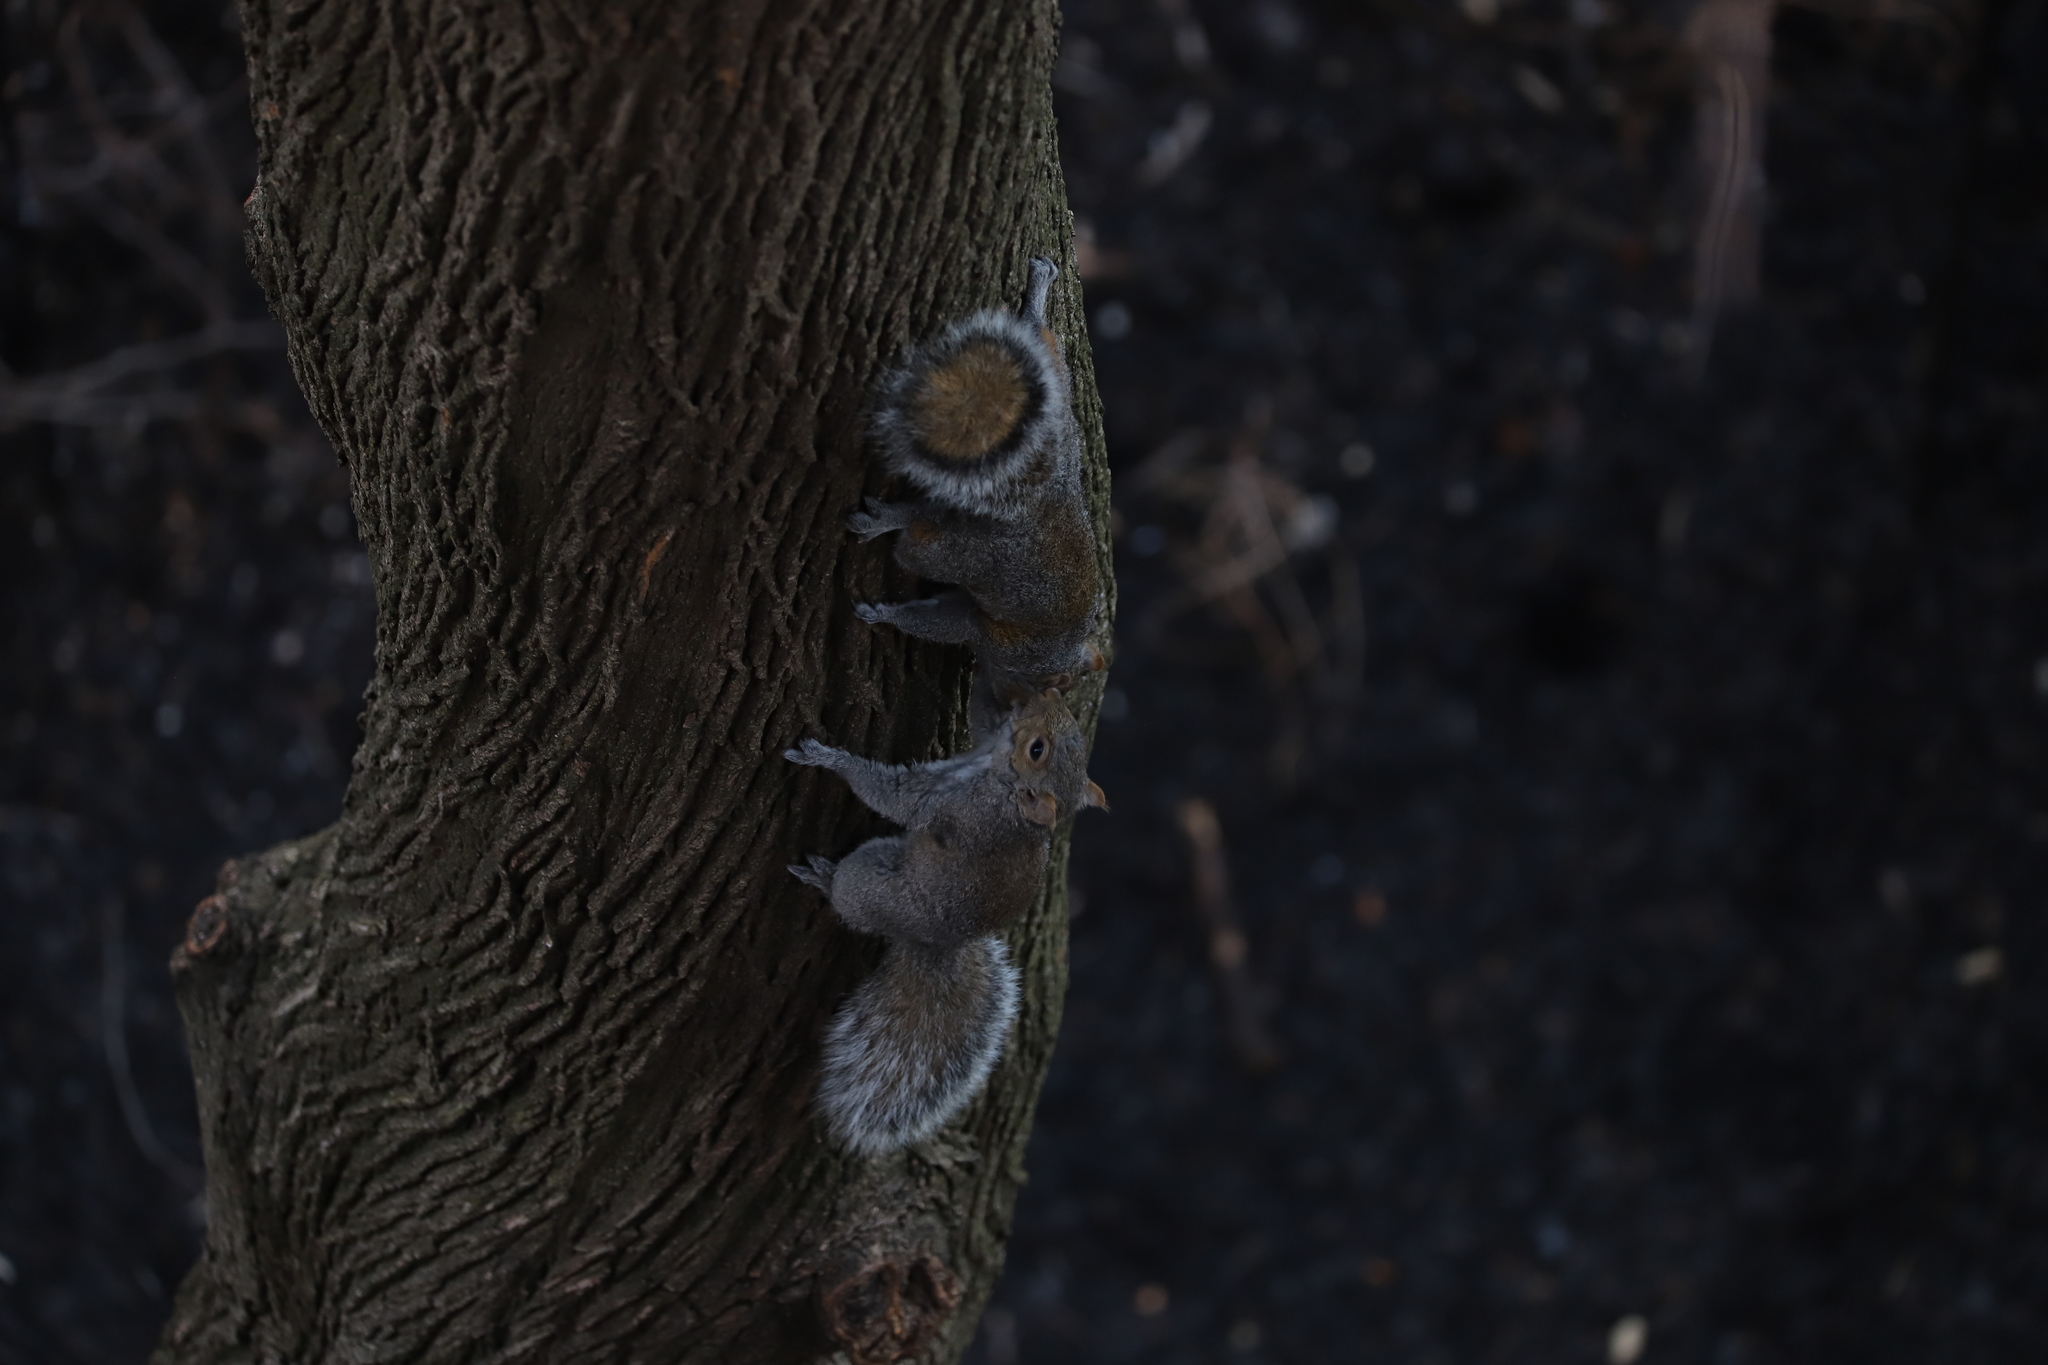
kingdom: Animalia
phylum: Chordata
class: Mammalia
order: Rodentia
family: Sciuridae
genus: Sciurus
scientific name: Sciurus carolinensis
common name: Eastern gray squirrel
